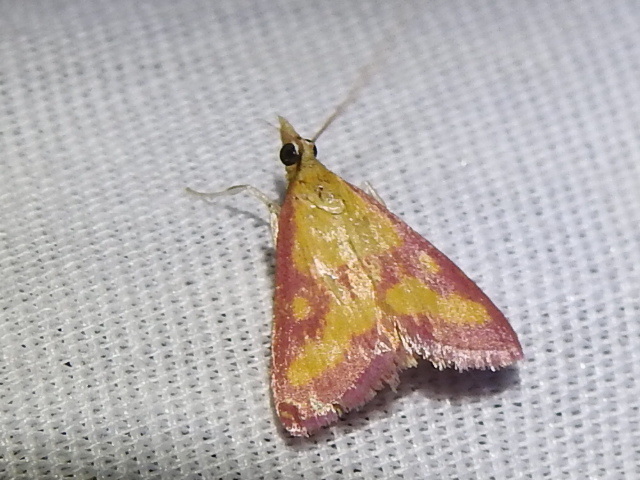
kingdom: Animalia
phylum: Arthropoda
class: Insecta
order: Lepidoptera
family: Crambidae
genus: Pyrausta
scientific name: Pyrausta laticlavia
